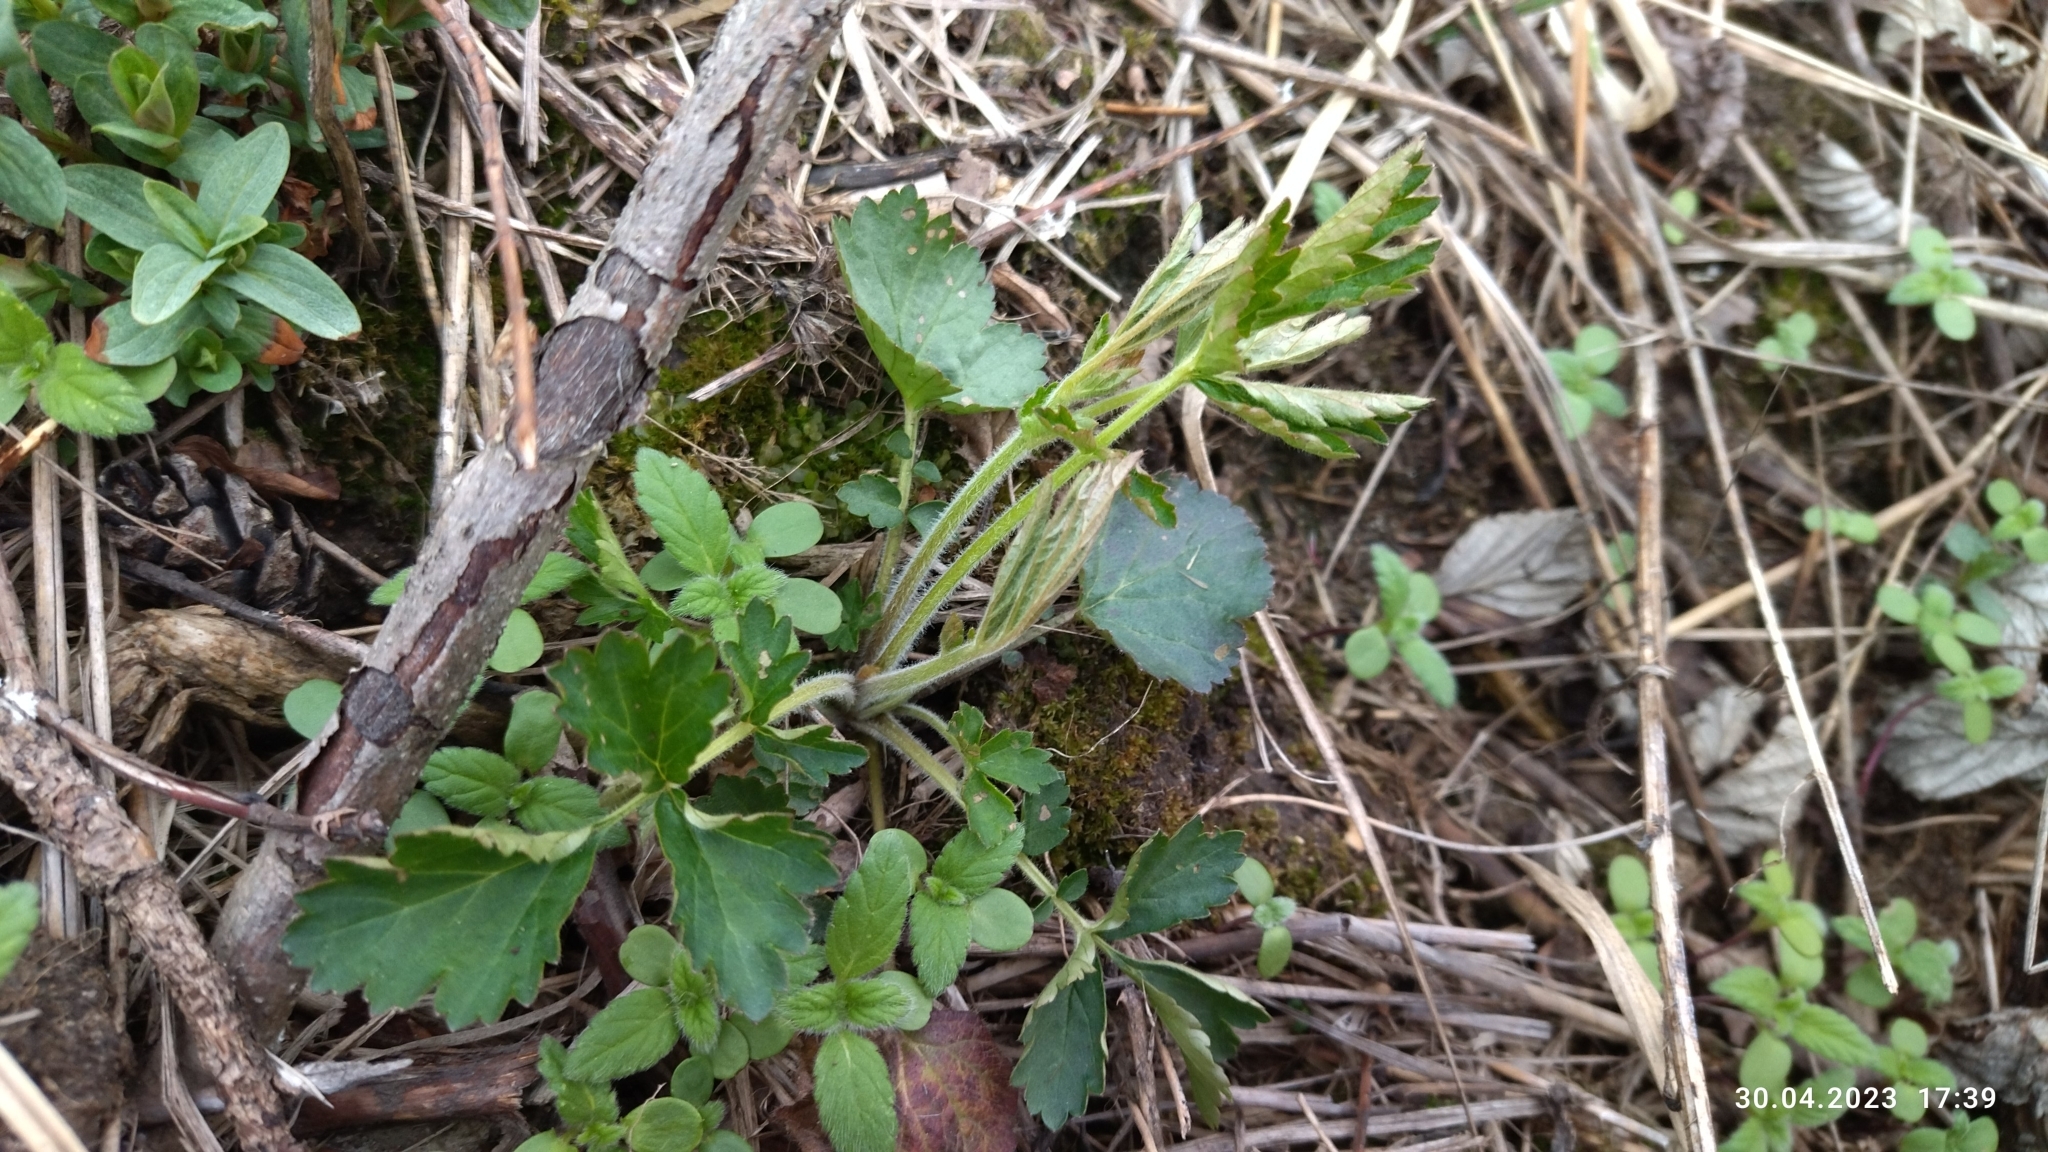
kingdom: Plantae
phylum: Tracheophyta
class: Magnoliopsida
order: Rosales
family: Rosaceae
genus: Geum
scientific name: Geum rivale
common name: Water avens
